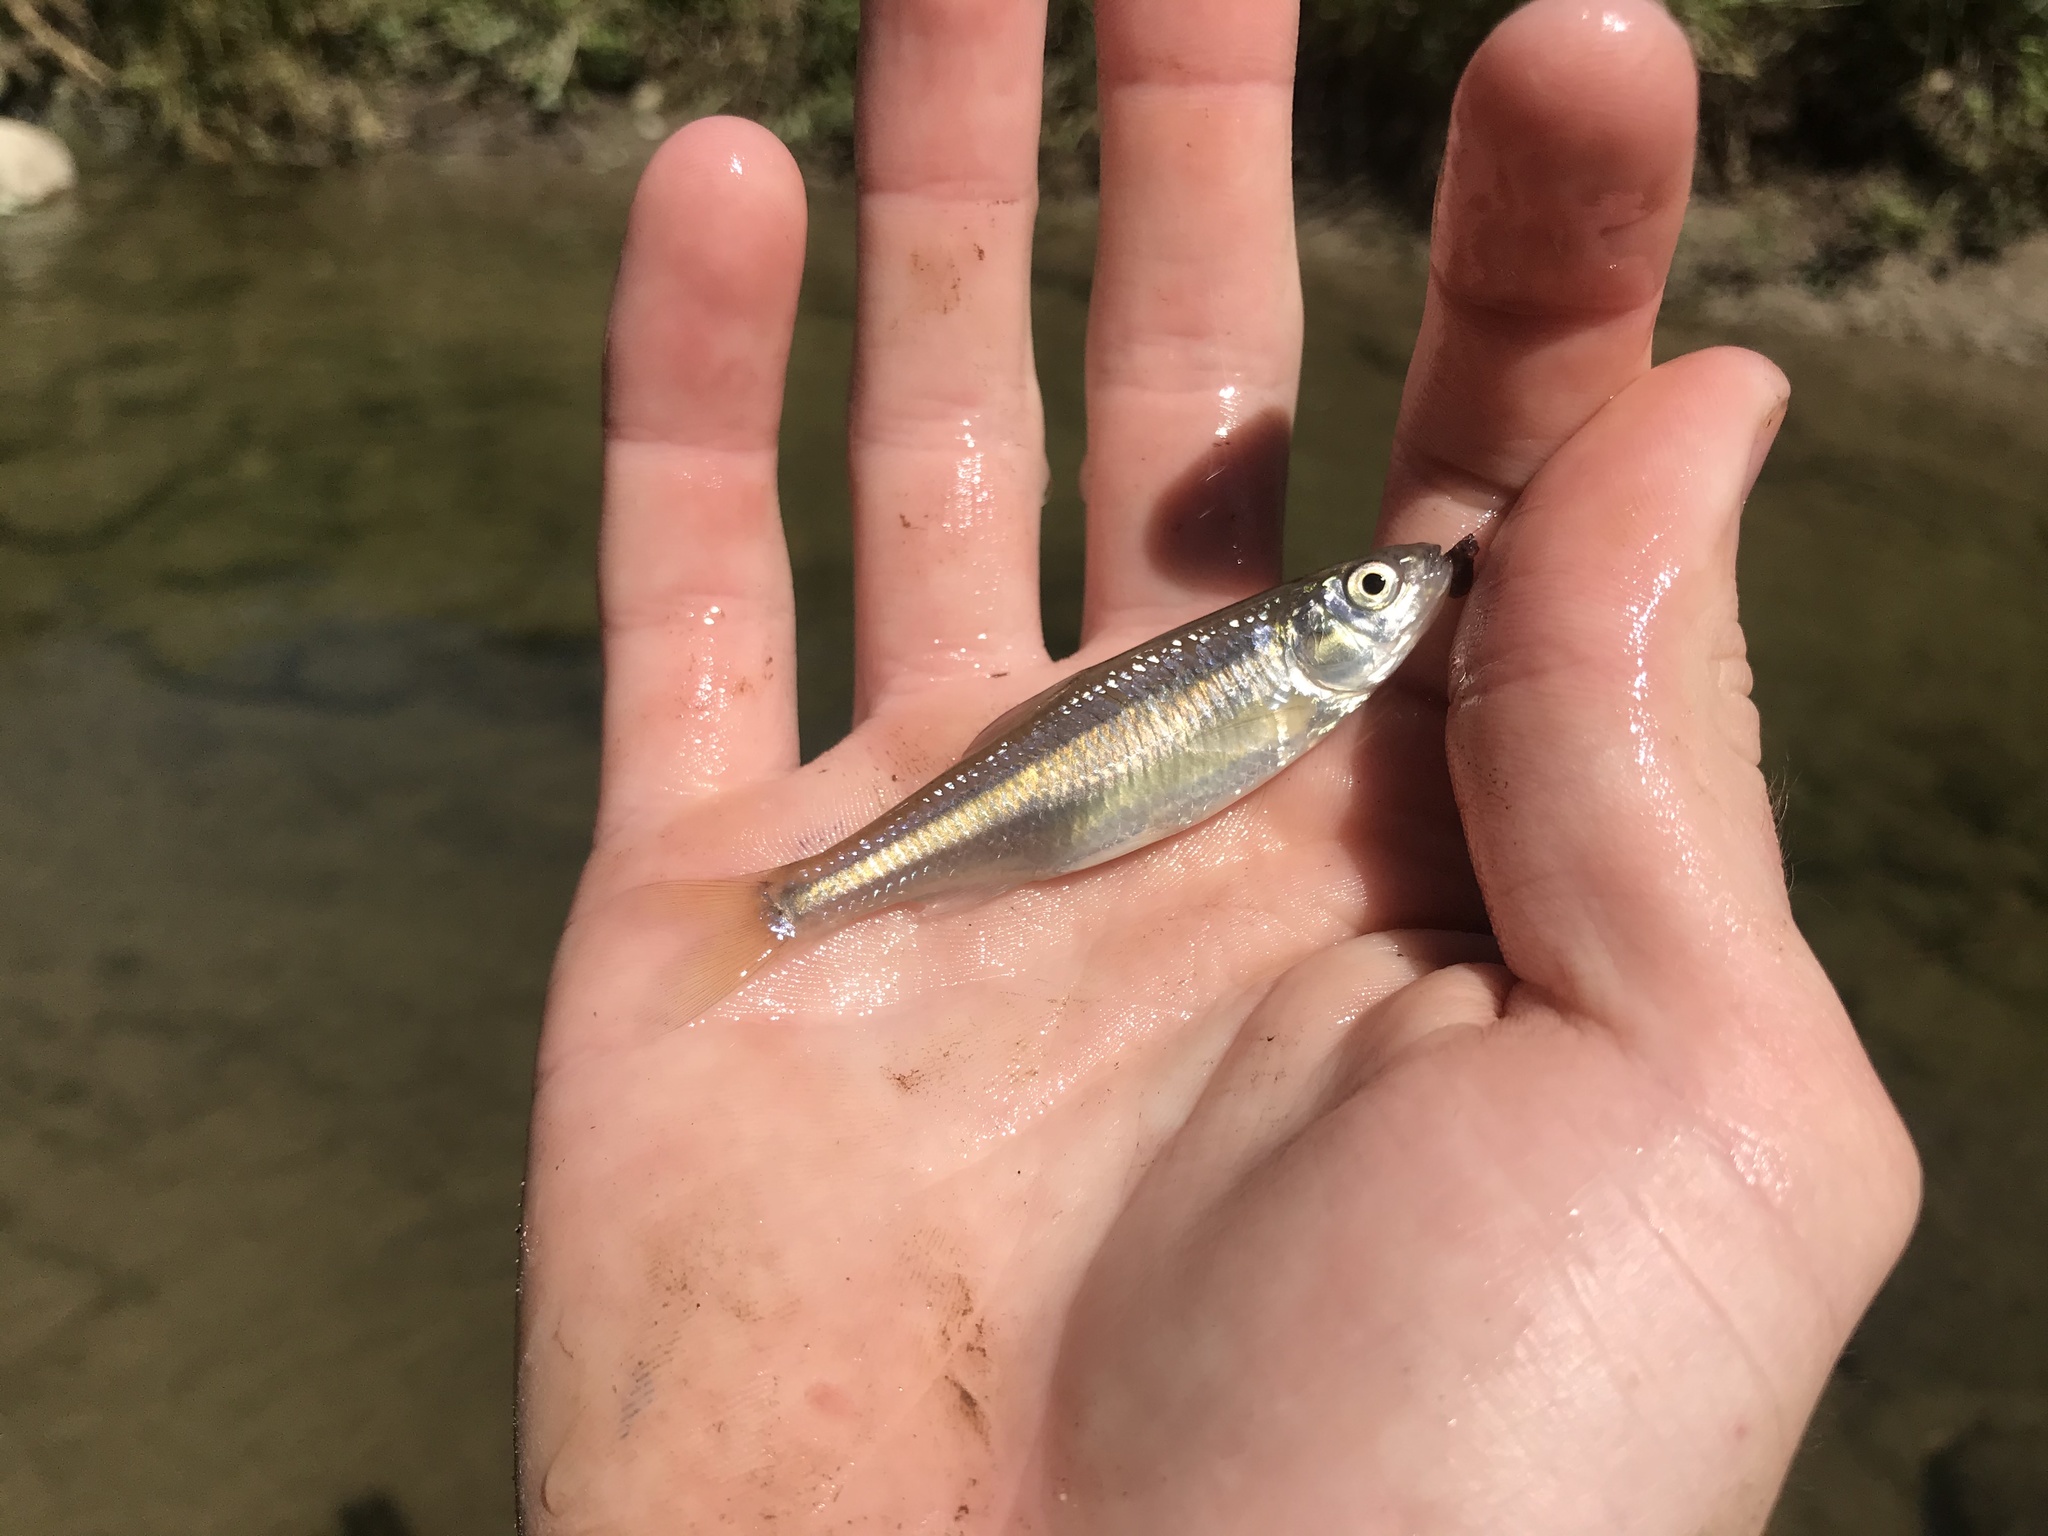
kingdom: Animalia
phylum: Chordata
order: Cypriniformes
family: Cyprinidae
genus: Luxilus
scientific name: Luxilus cornutus
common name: Common shiner
